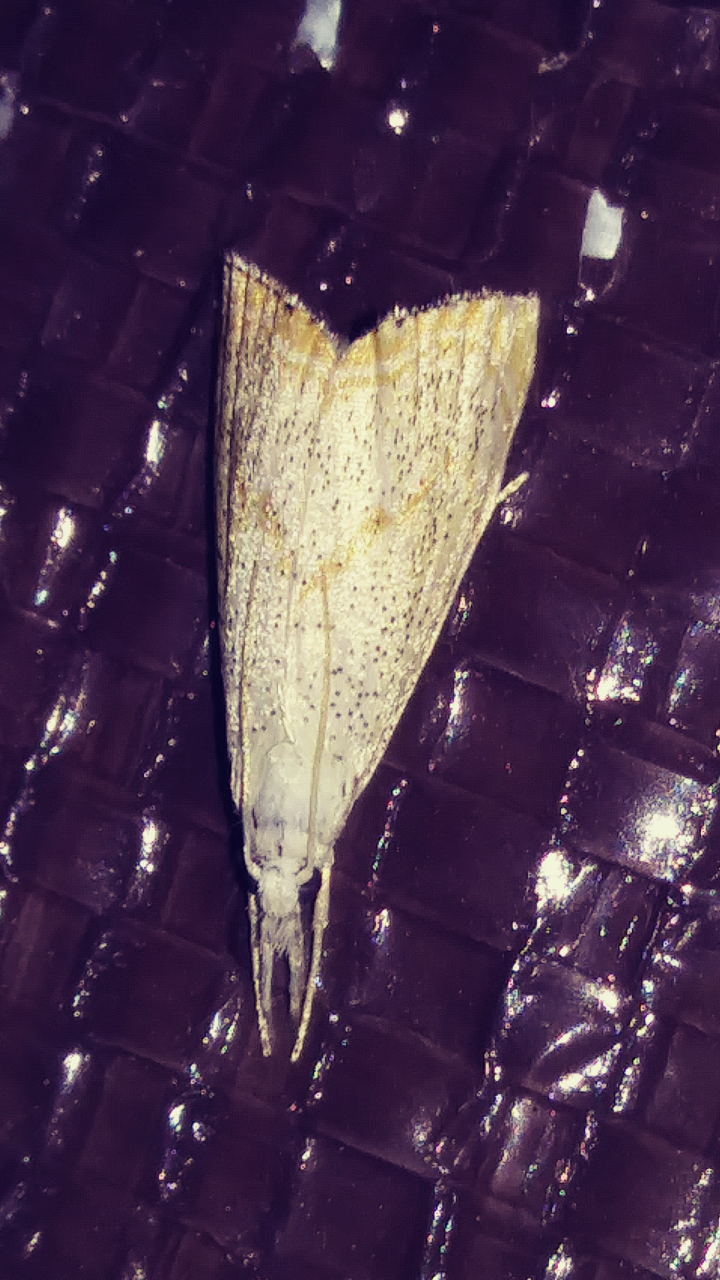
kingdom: Animalia
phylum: Arthropoda
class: Insecta
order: Lepidoptera
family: Crambidae
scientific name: Crambidae
